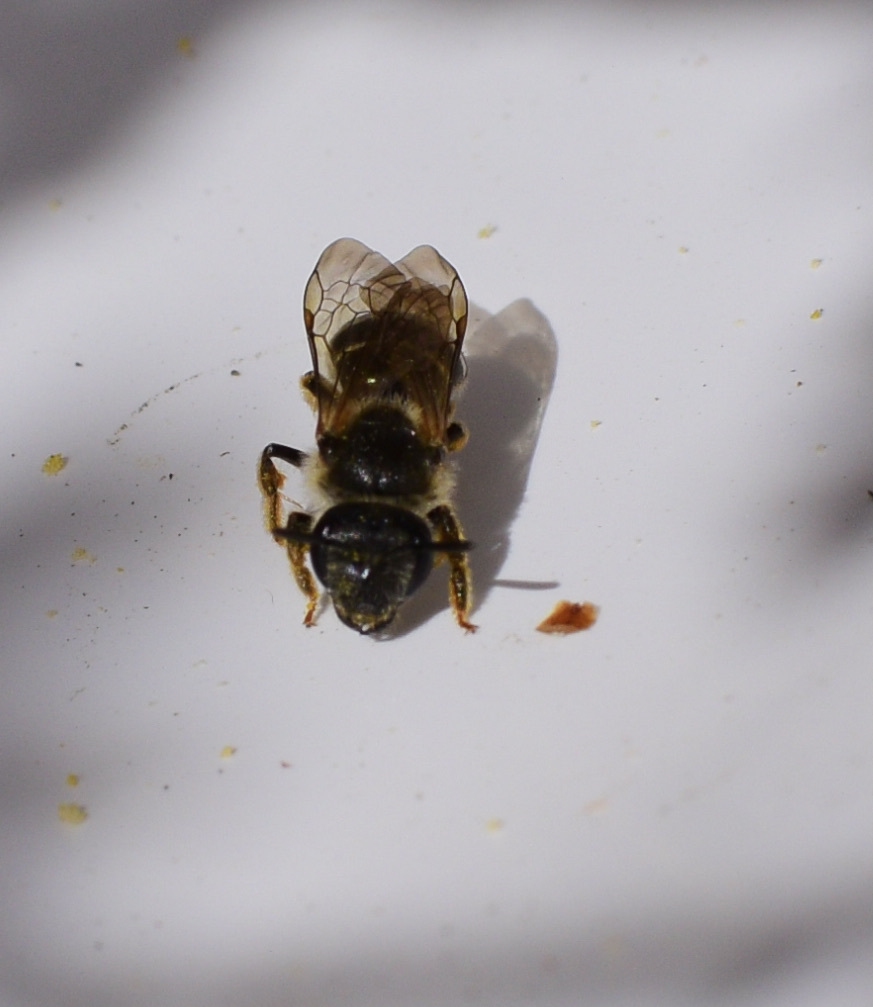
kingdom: Animalia
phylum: Arthropoda
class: Insecta
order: Hymenoptera
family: Halictidae
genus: Halictus
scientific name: Halictus rubicundus
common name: Orange-legged furrow bee
